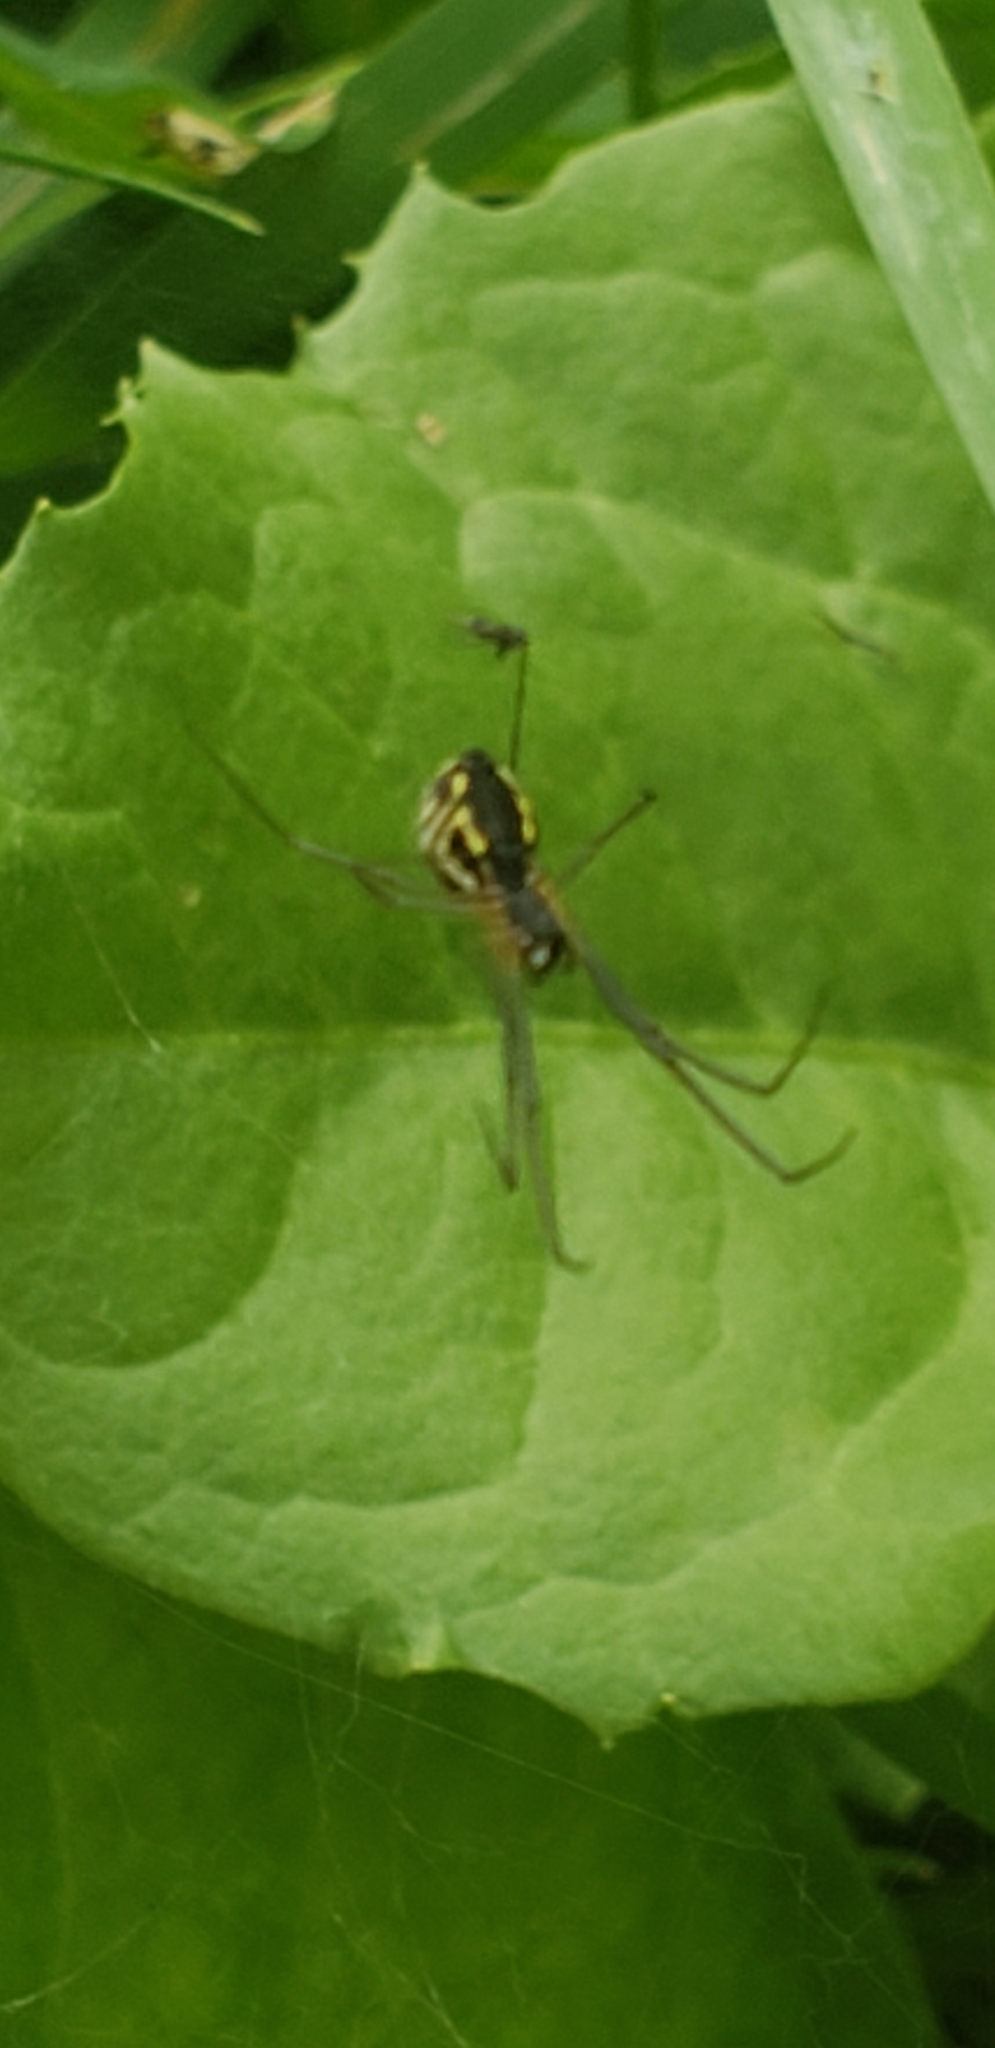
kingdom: Animalia
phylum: Arthropoda
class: Arachnida
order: Araneae
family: Linyphiidae
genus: Neriene
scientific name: Neriene radiata
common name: Filmy dome spider
